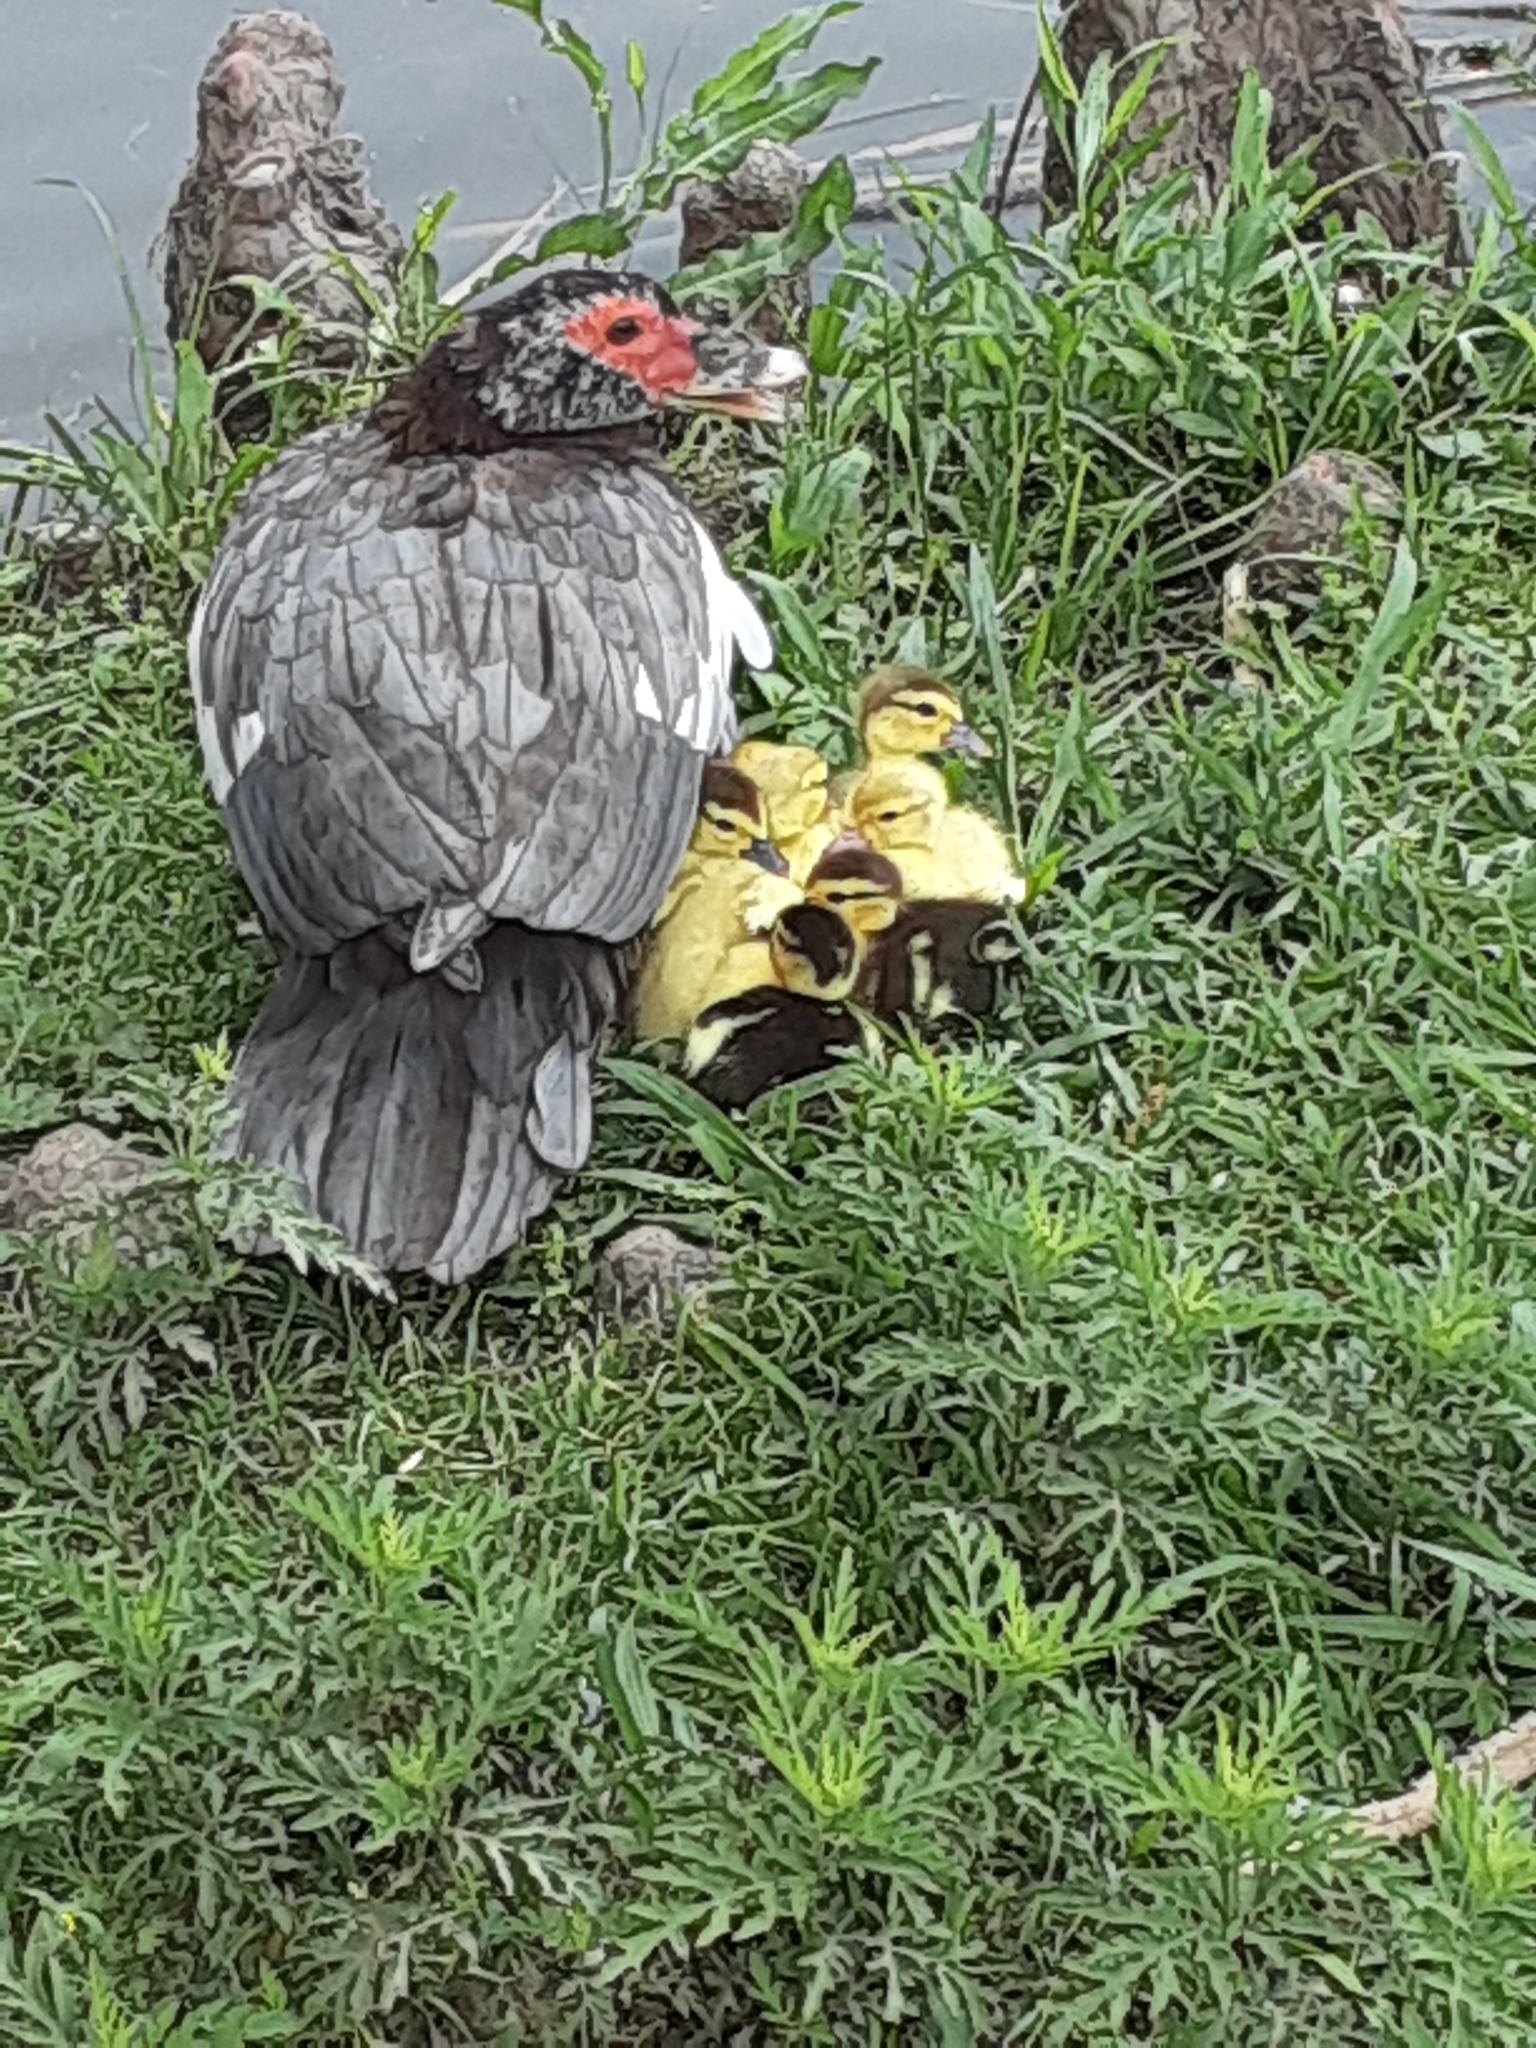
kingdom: Animalia
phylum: Chordata
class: Aves
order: Anseriformes
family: Anatidae
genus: Cairina
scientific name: Cairina moschata
